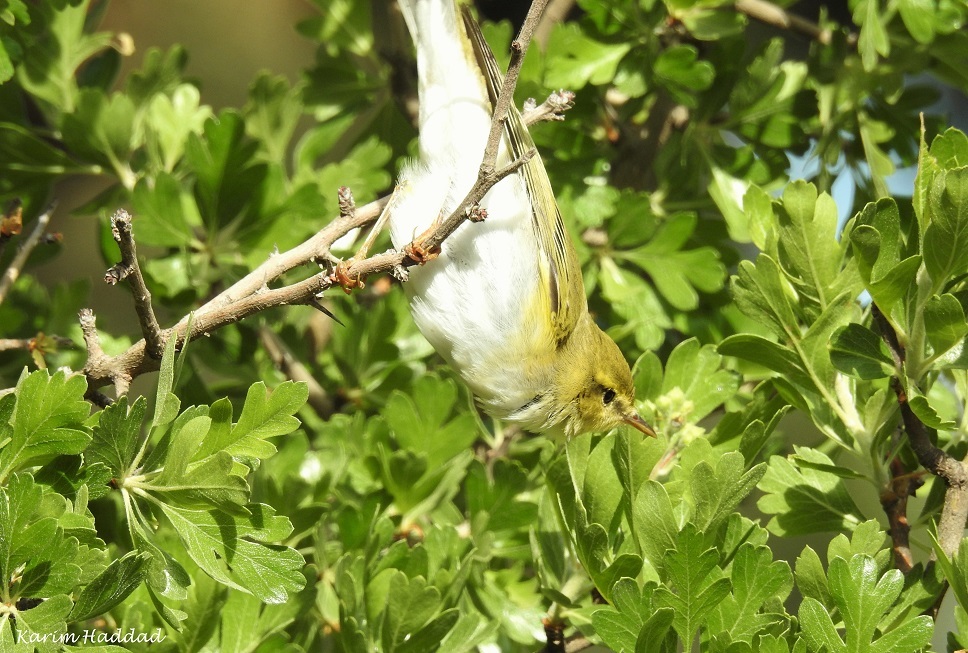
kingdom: Animalia
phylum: Chordata
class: Aves
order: Passeriformes
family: Phylloscopidae
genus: Phylloscopus
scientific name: Phylloscopus sibillatrix
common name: Wood warbler
